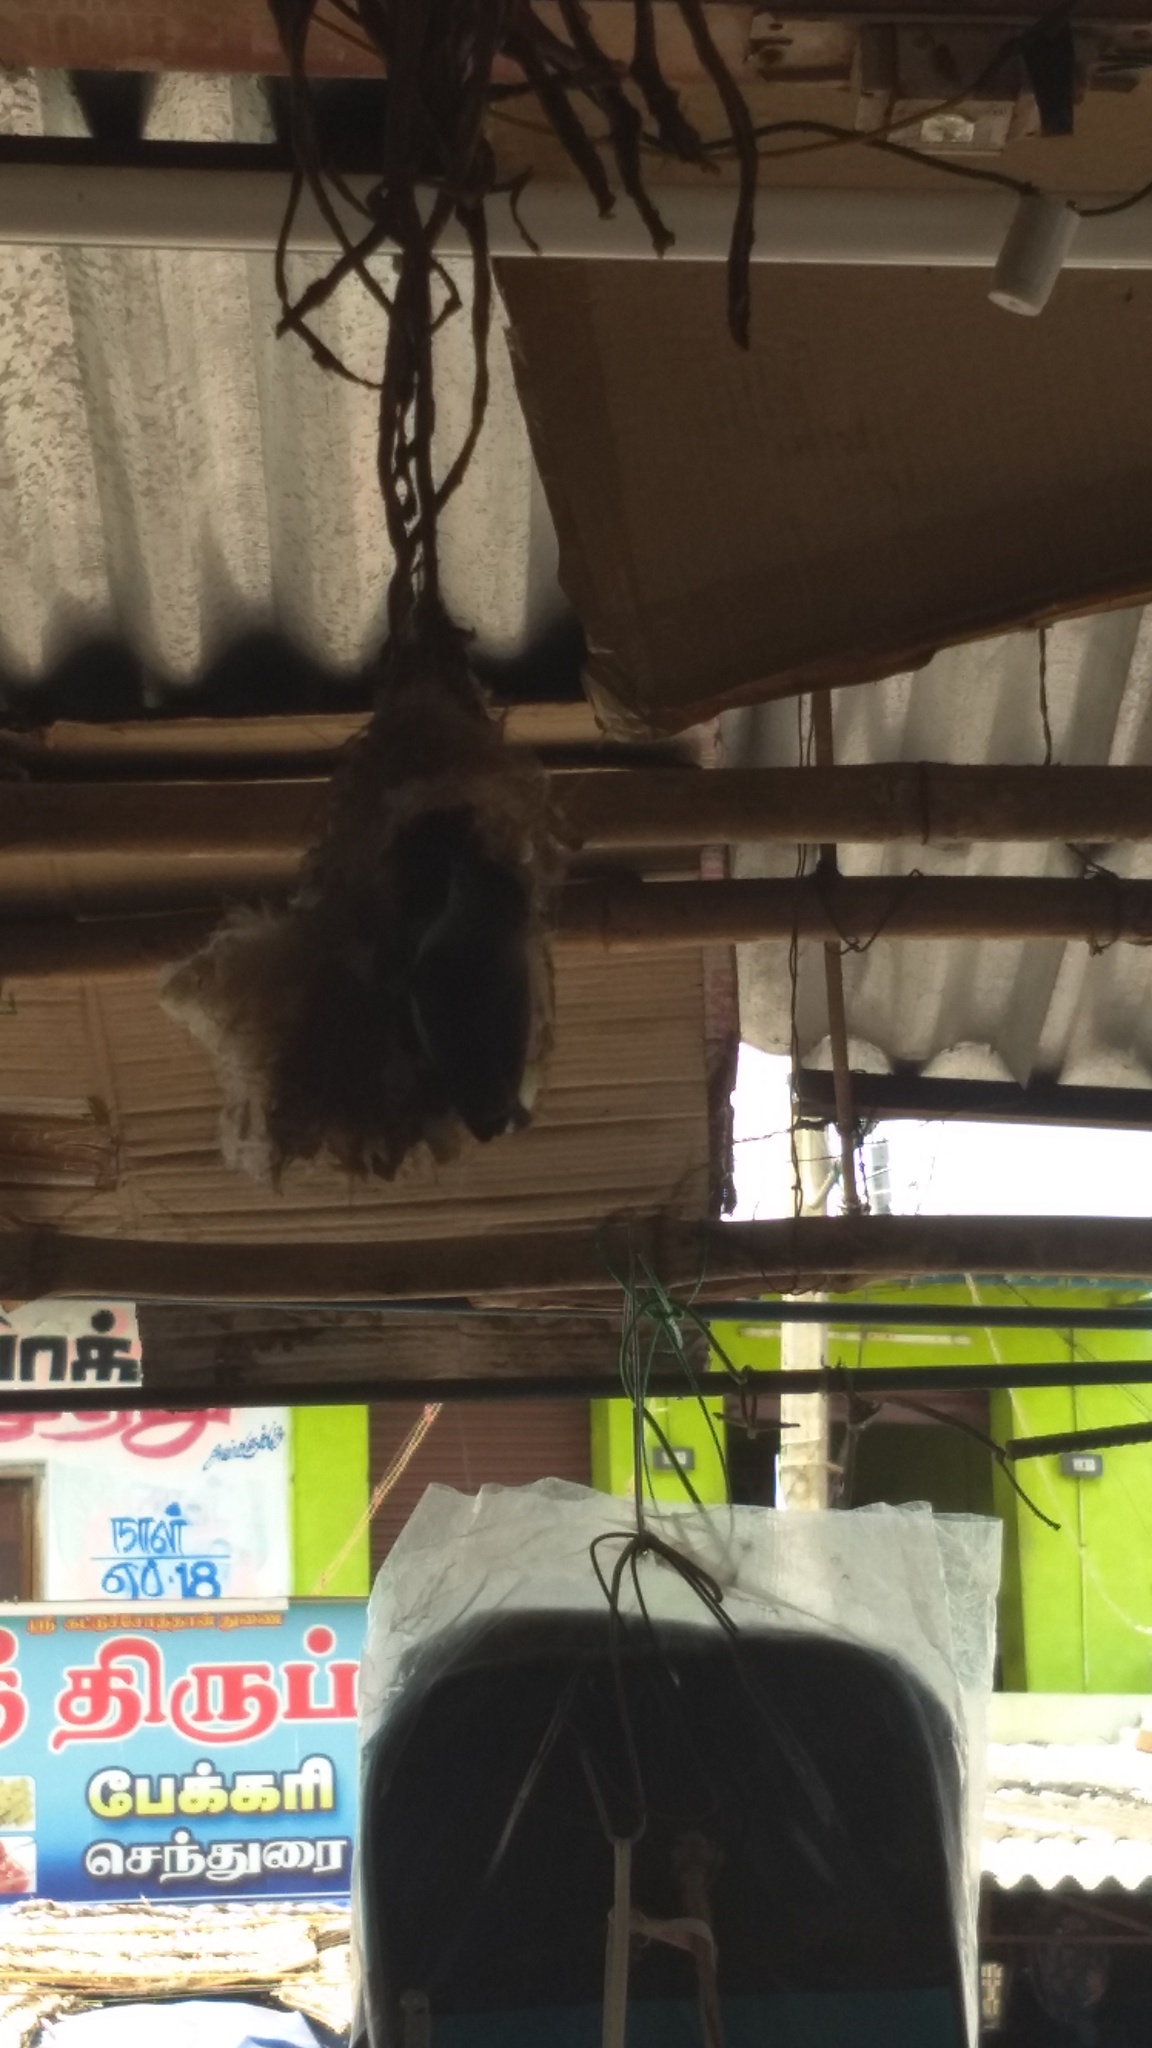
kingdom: Animalia
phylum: Chordata
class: Aves
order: Passeriformes
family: Nectariniidae
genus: Leptocoma
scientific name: Leptocoma zeylonica
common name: Purple-rumped sunbird
